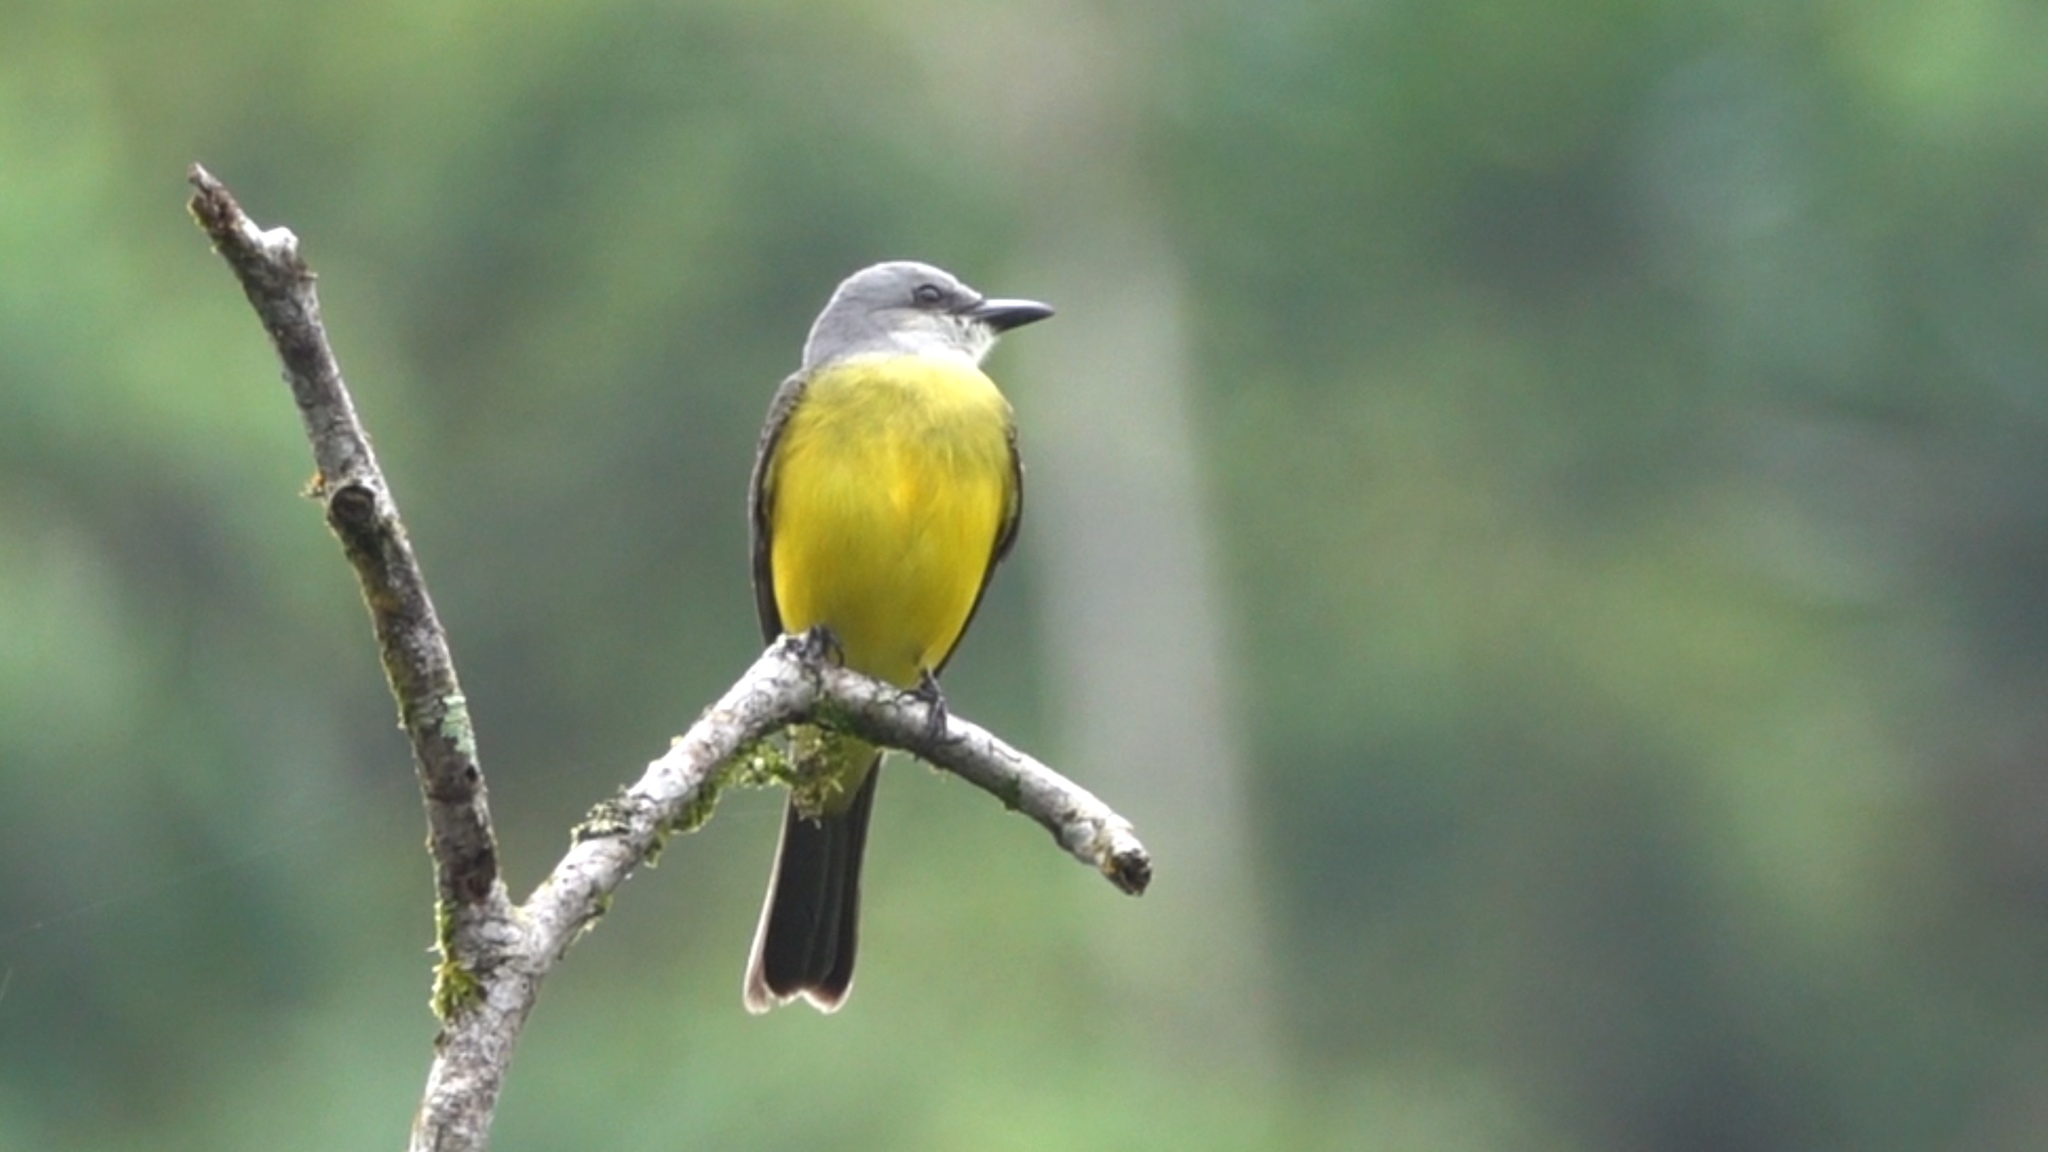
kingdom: Animalia
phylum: Chordata
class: Aves
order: Passeriformes
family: Tyrannidae
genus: Tyrannus
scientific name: Tyrannus melancholicus
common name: Tropical kingbird
